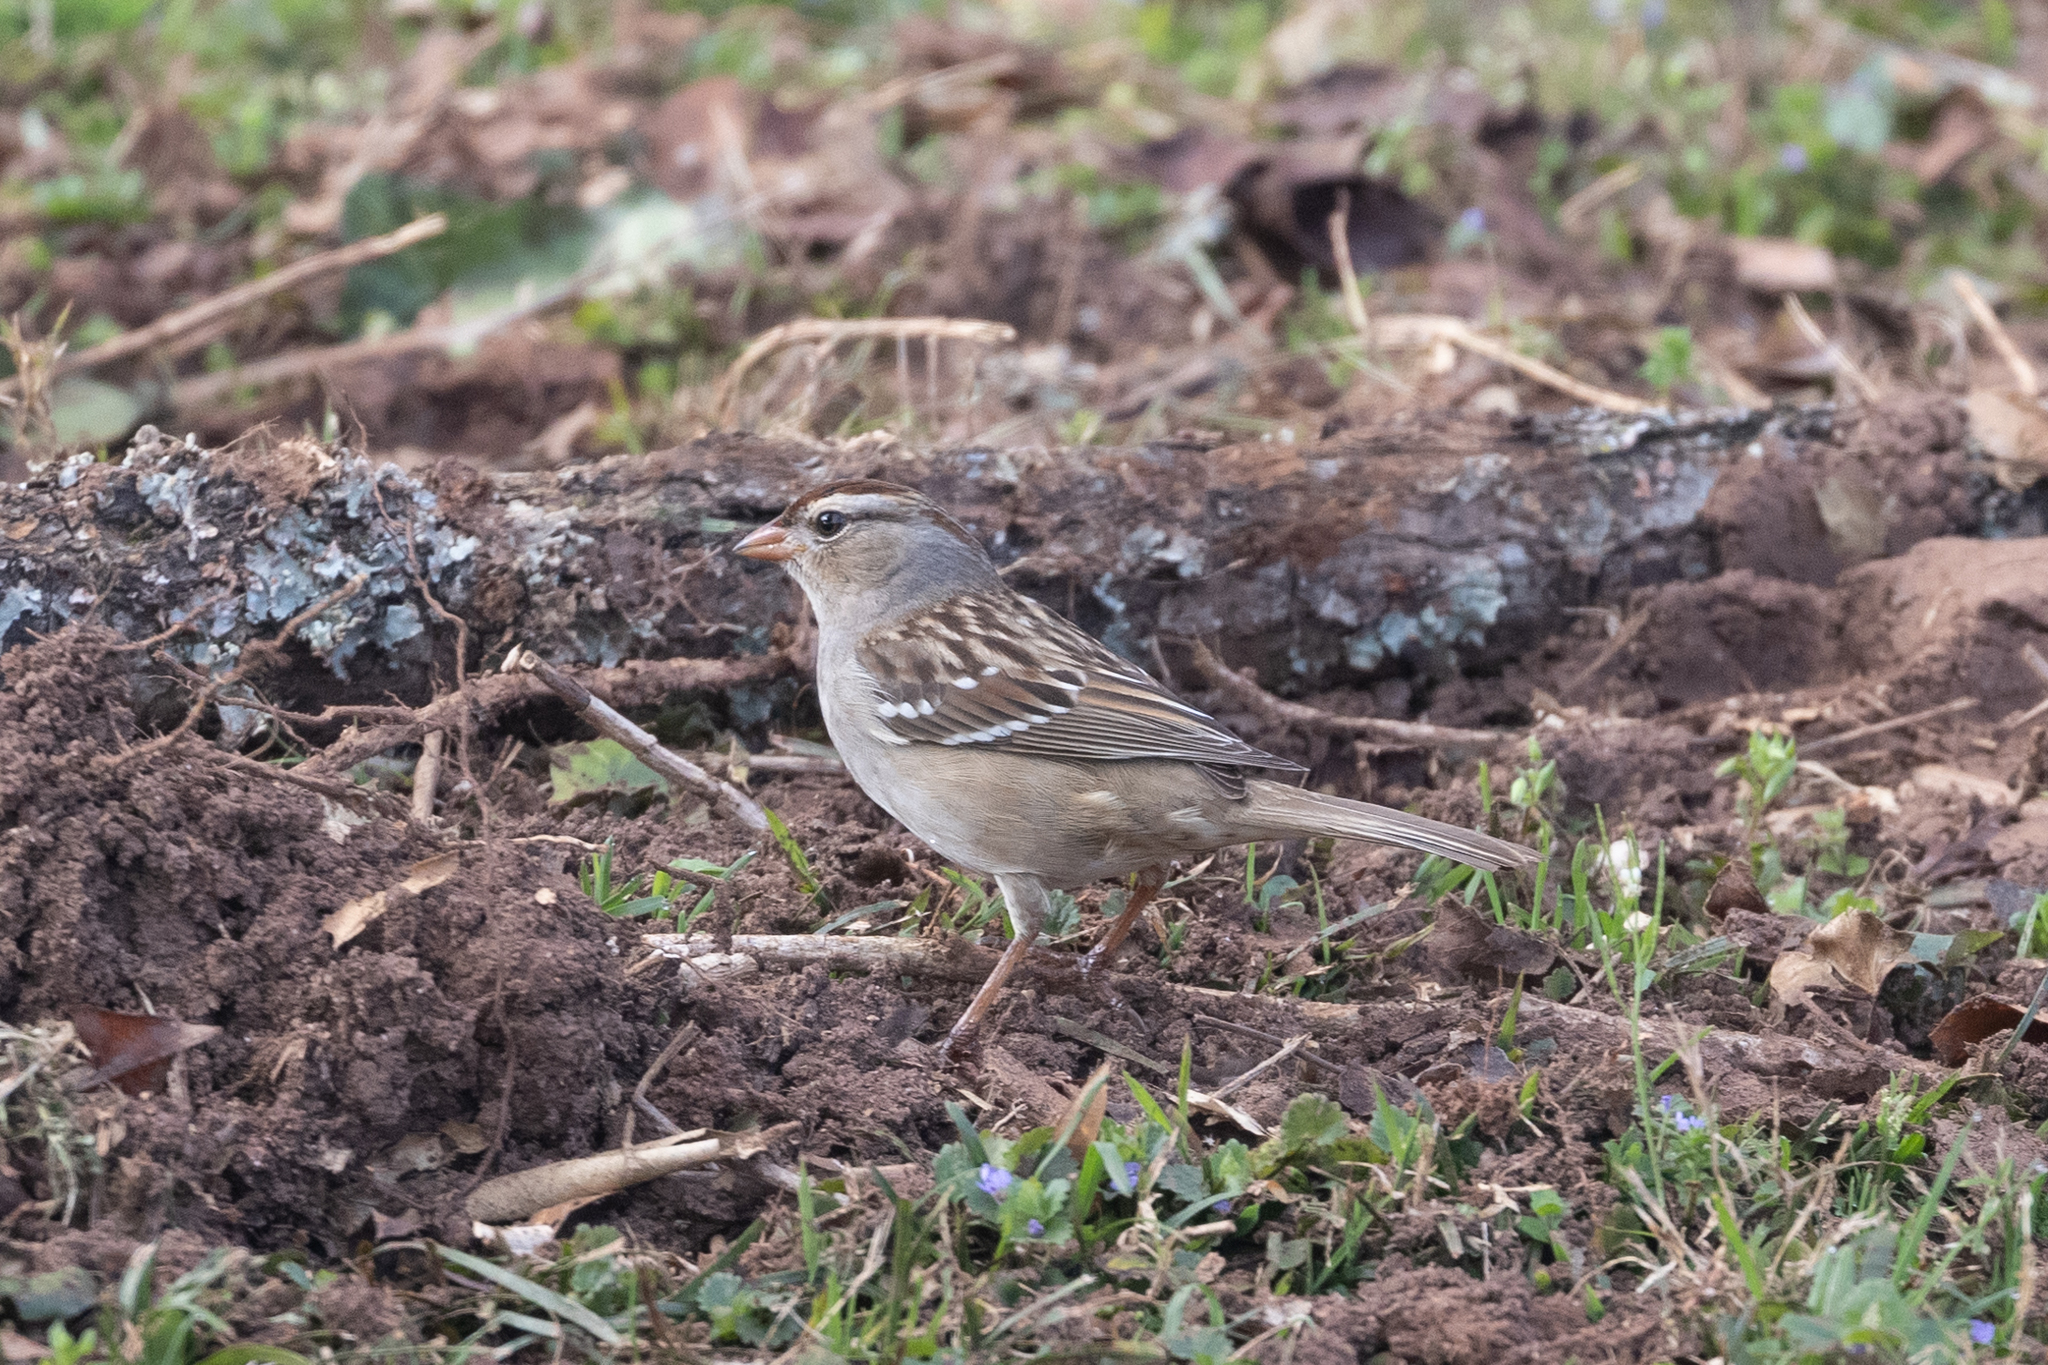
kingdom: Animalia
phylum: Chordata
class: Aves
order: Passeriformes
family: Passerellidae
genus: Zonotrichia
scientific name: Zonotrichia leucophrys
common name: White-crowned sparrow
